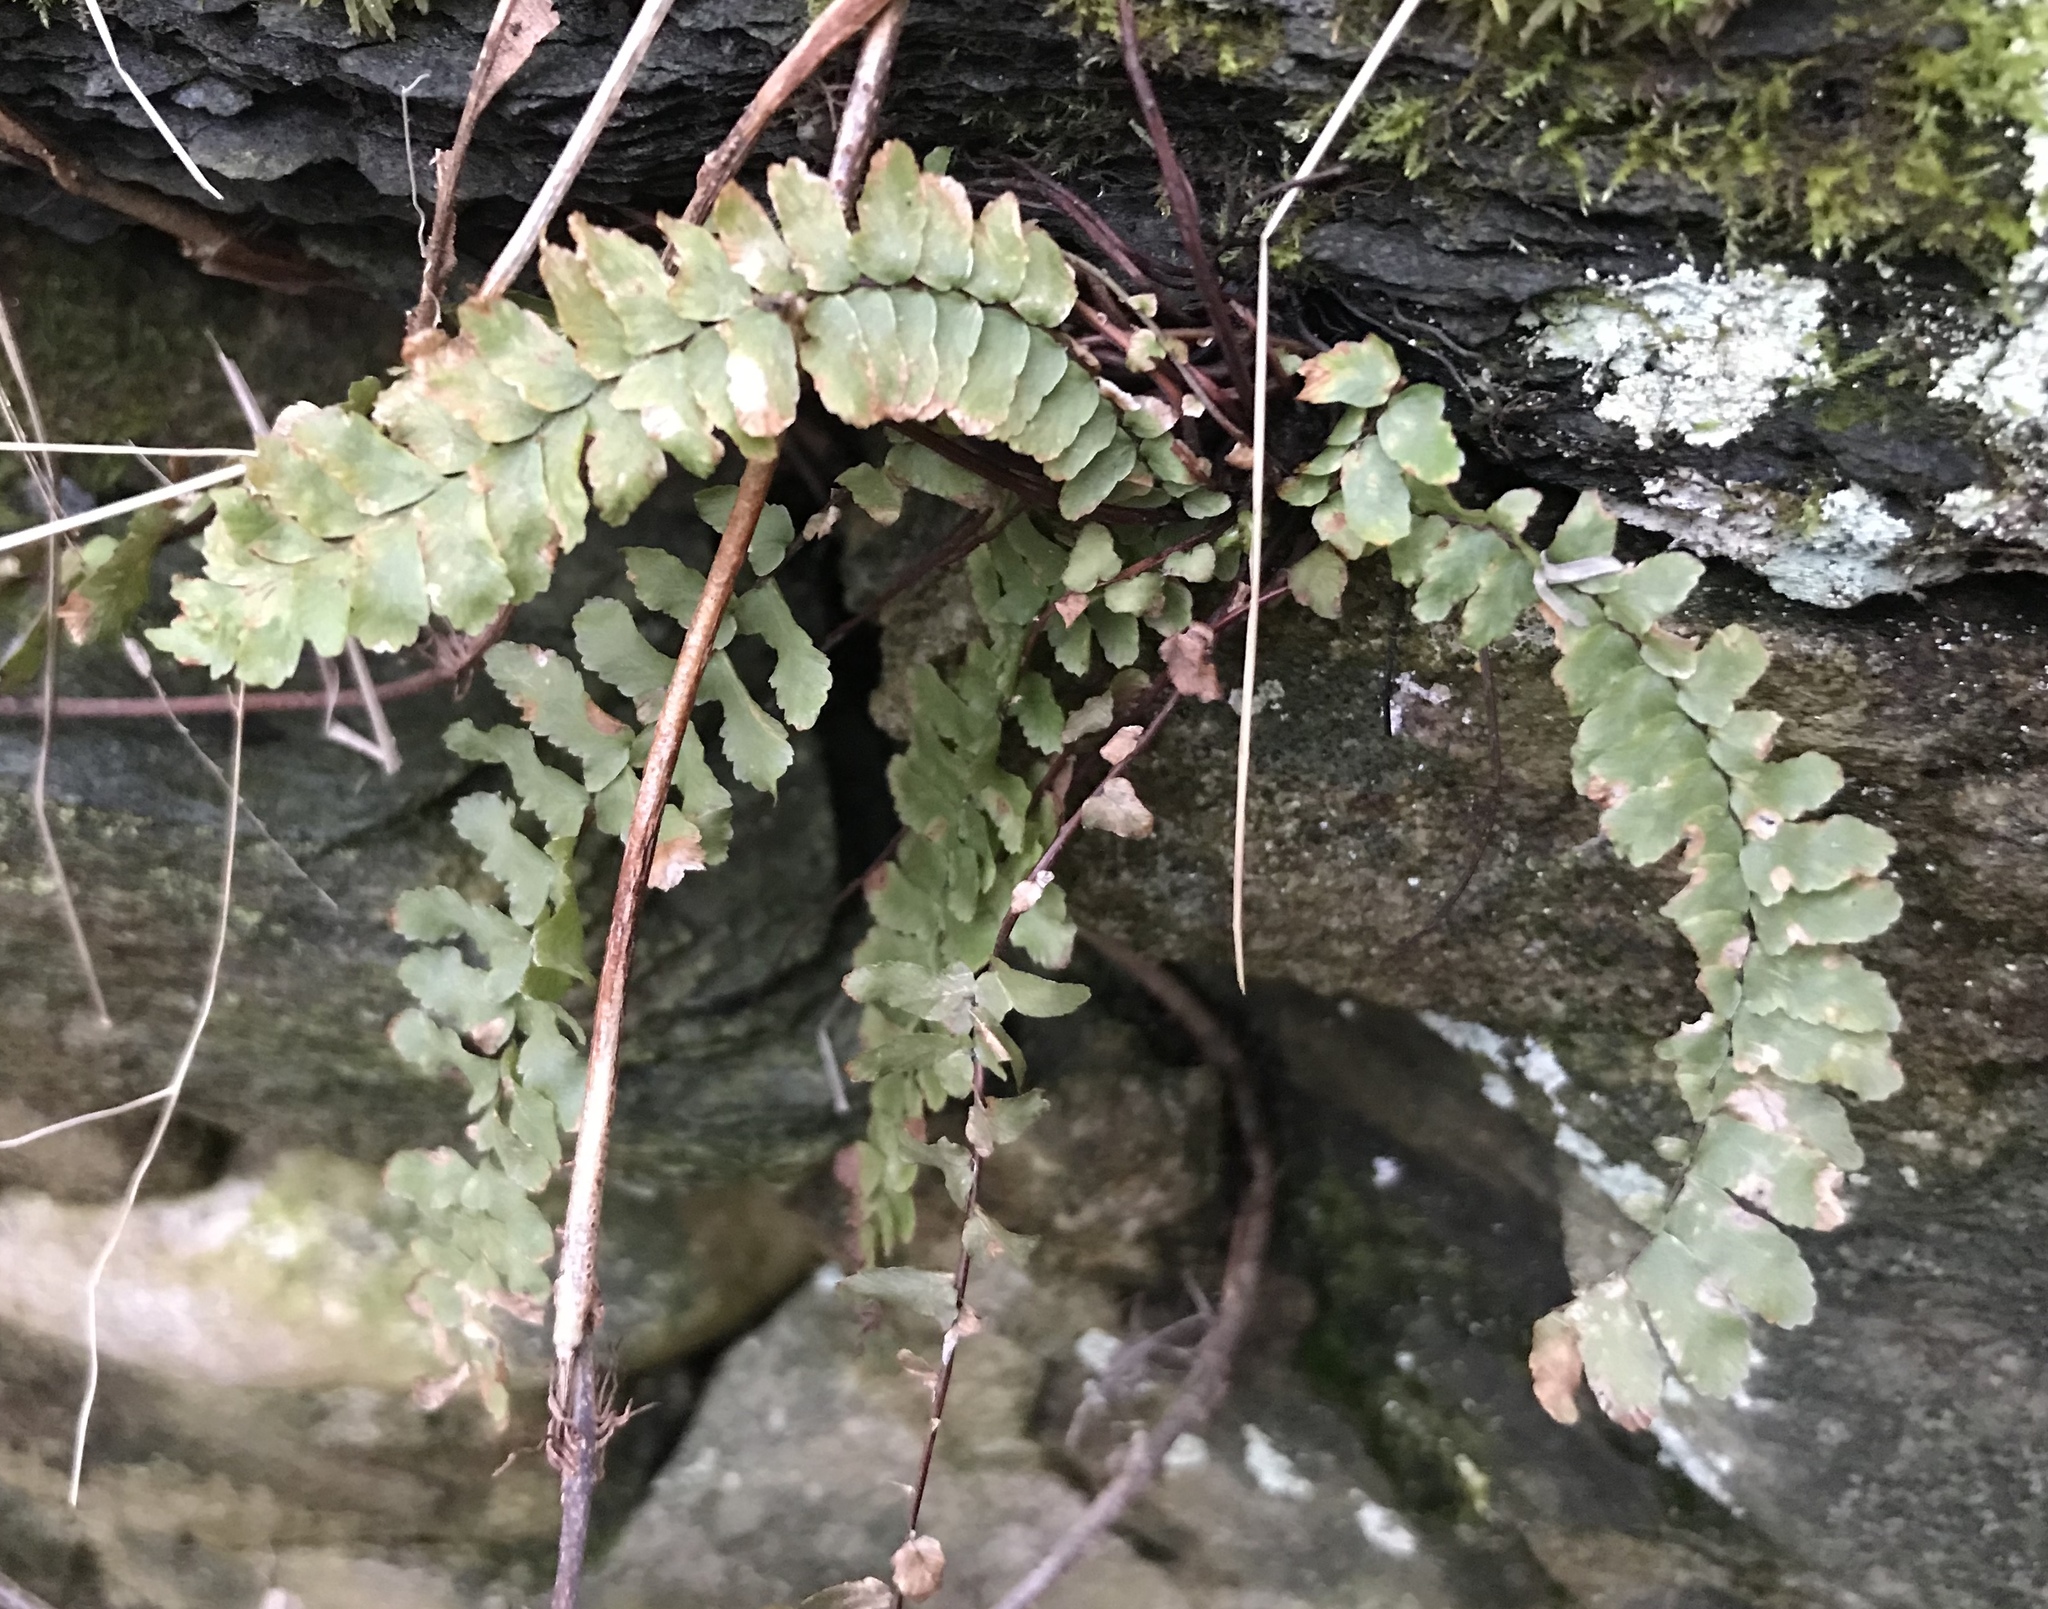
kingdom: Plantae
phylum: Tracheophyta
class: Polypodiopsida
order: Polypodiales
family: Aspleniaceae
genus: Asplenium
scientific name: Asplenium platyneuron
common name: Ebony spleenwort
